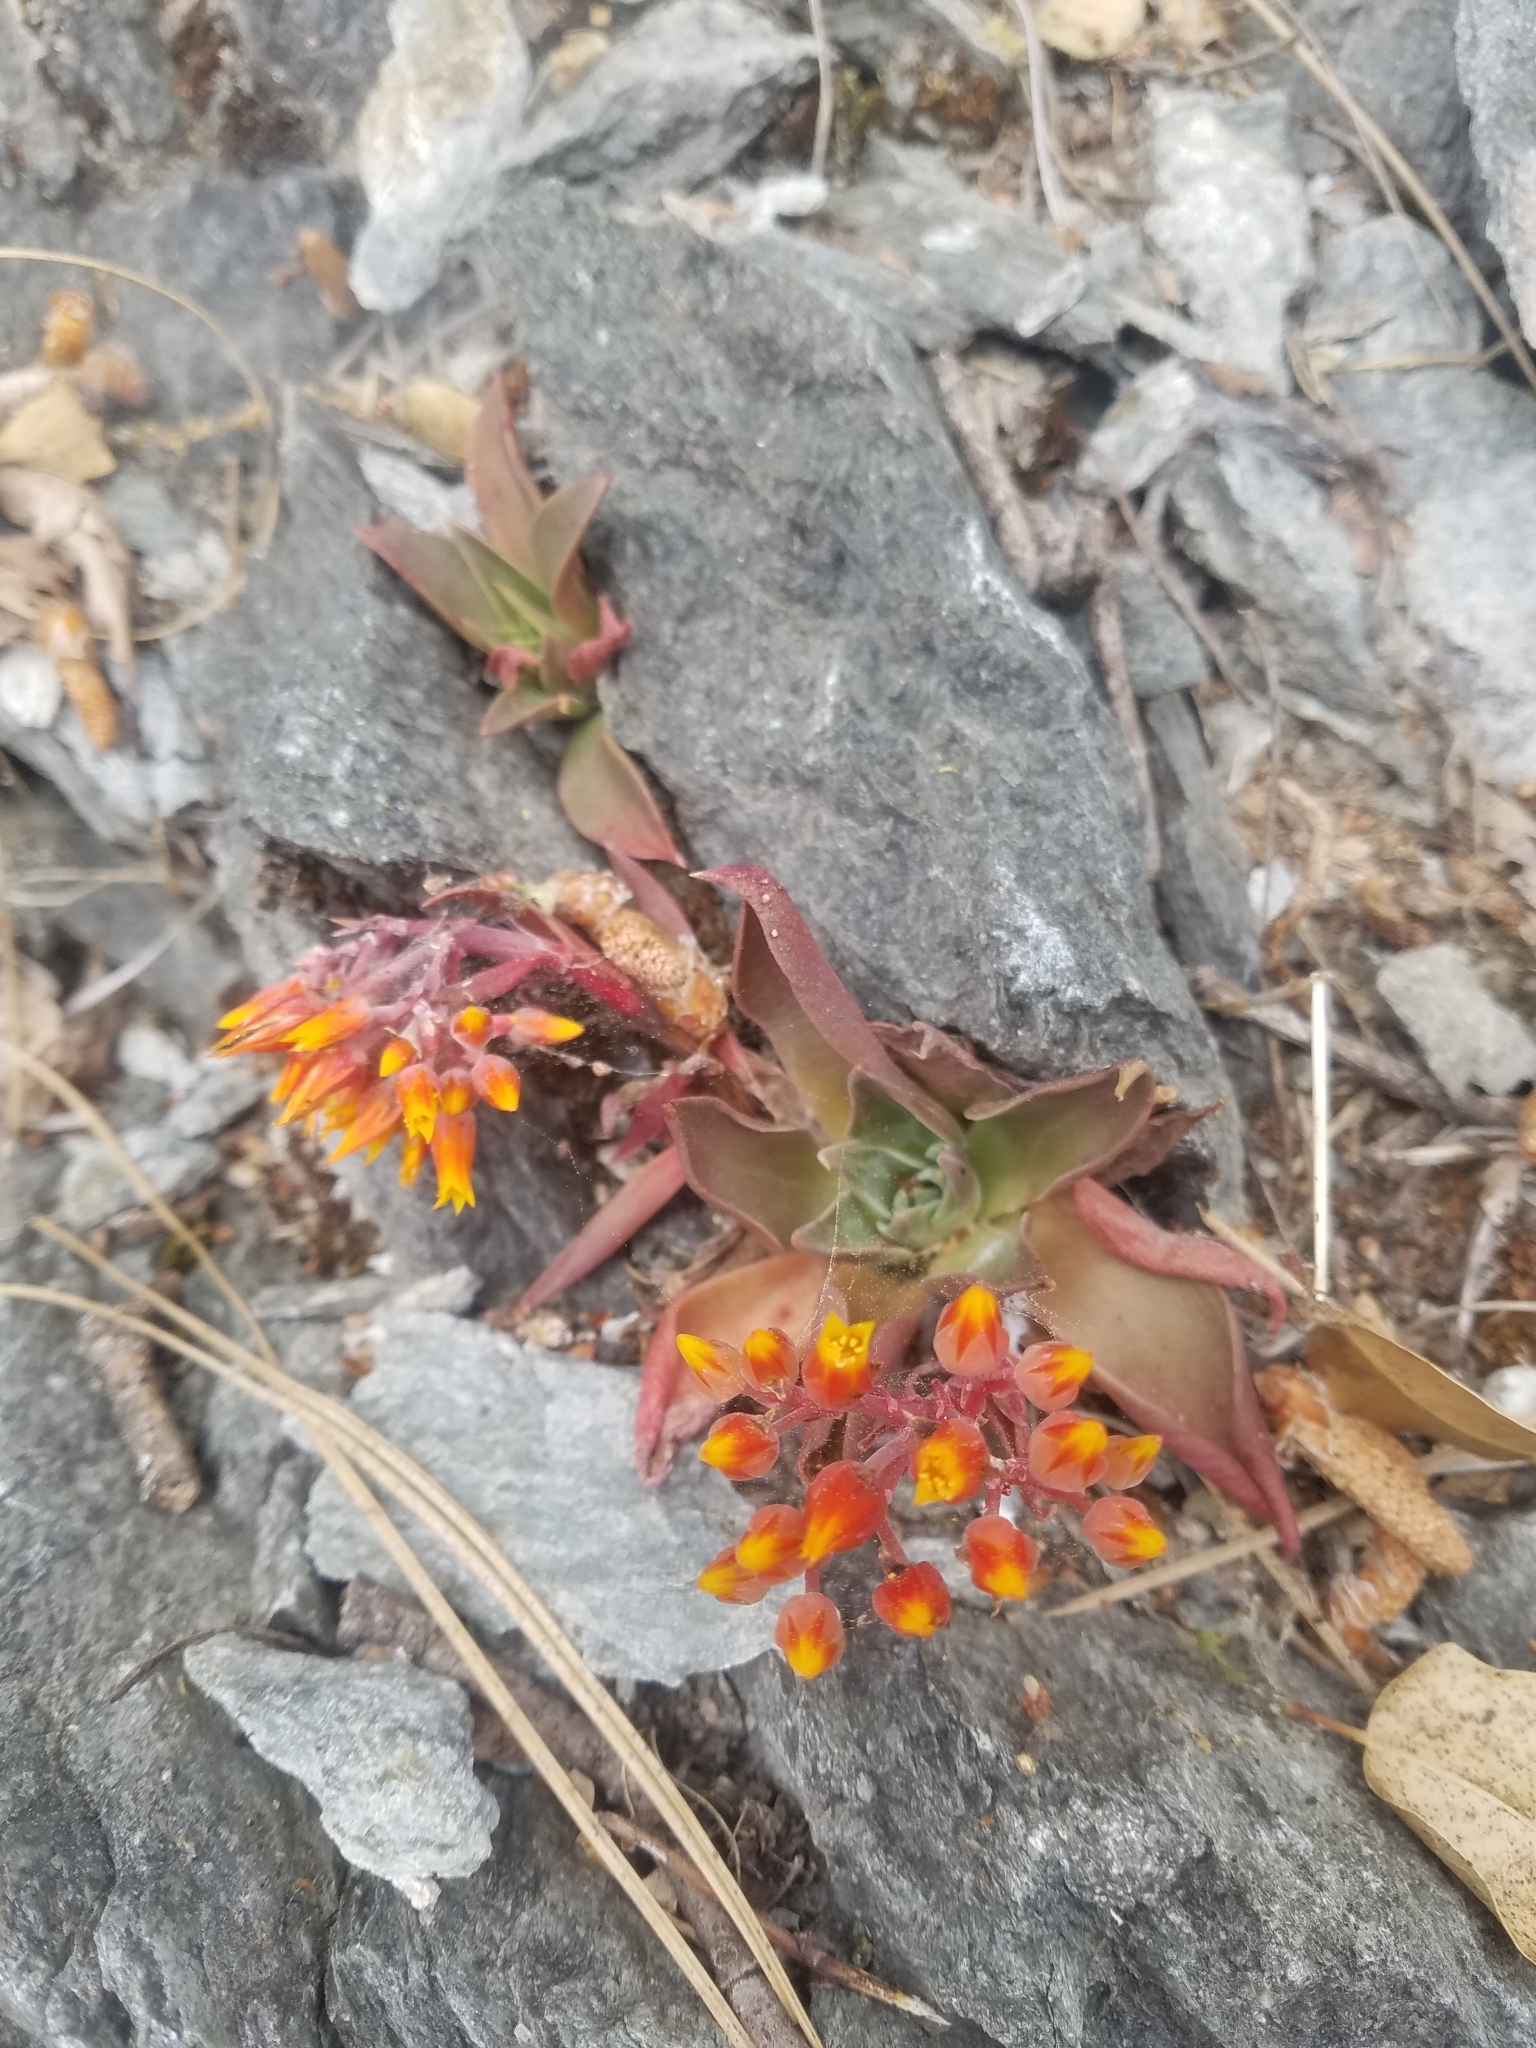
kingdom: Plantae
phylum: Tracheophyta
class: Magnoliopsida
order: Saxifragales
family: Crassulaceae
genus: Dudleya
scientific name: Dudleya cymosa
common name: Canyon dudleya
